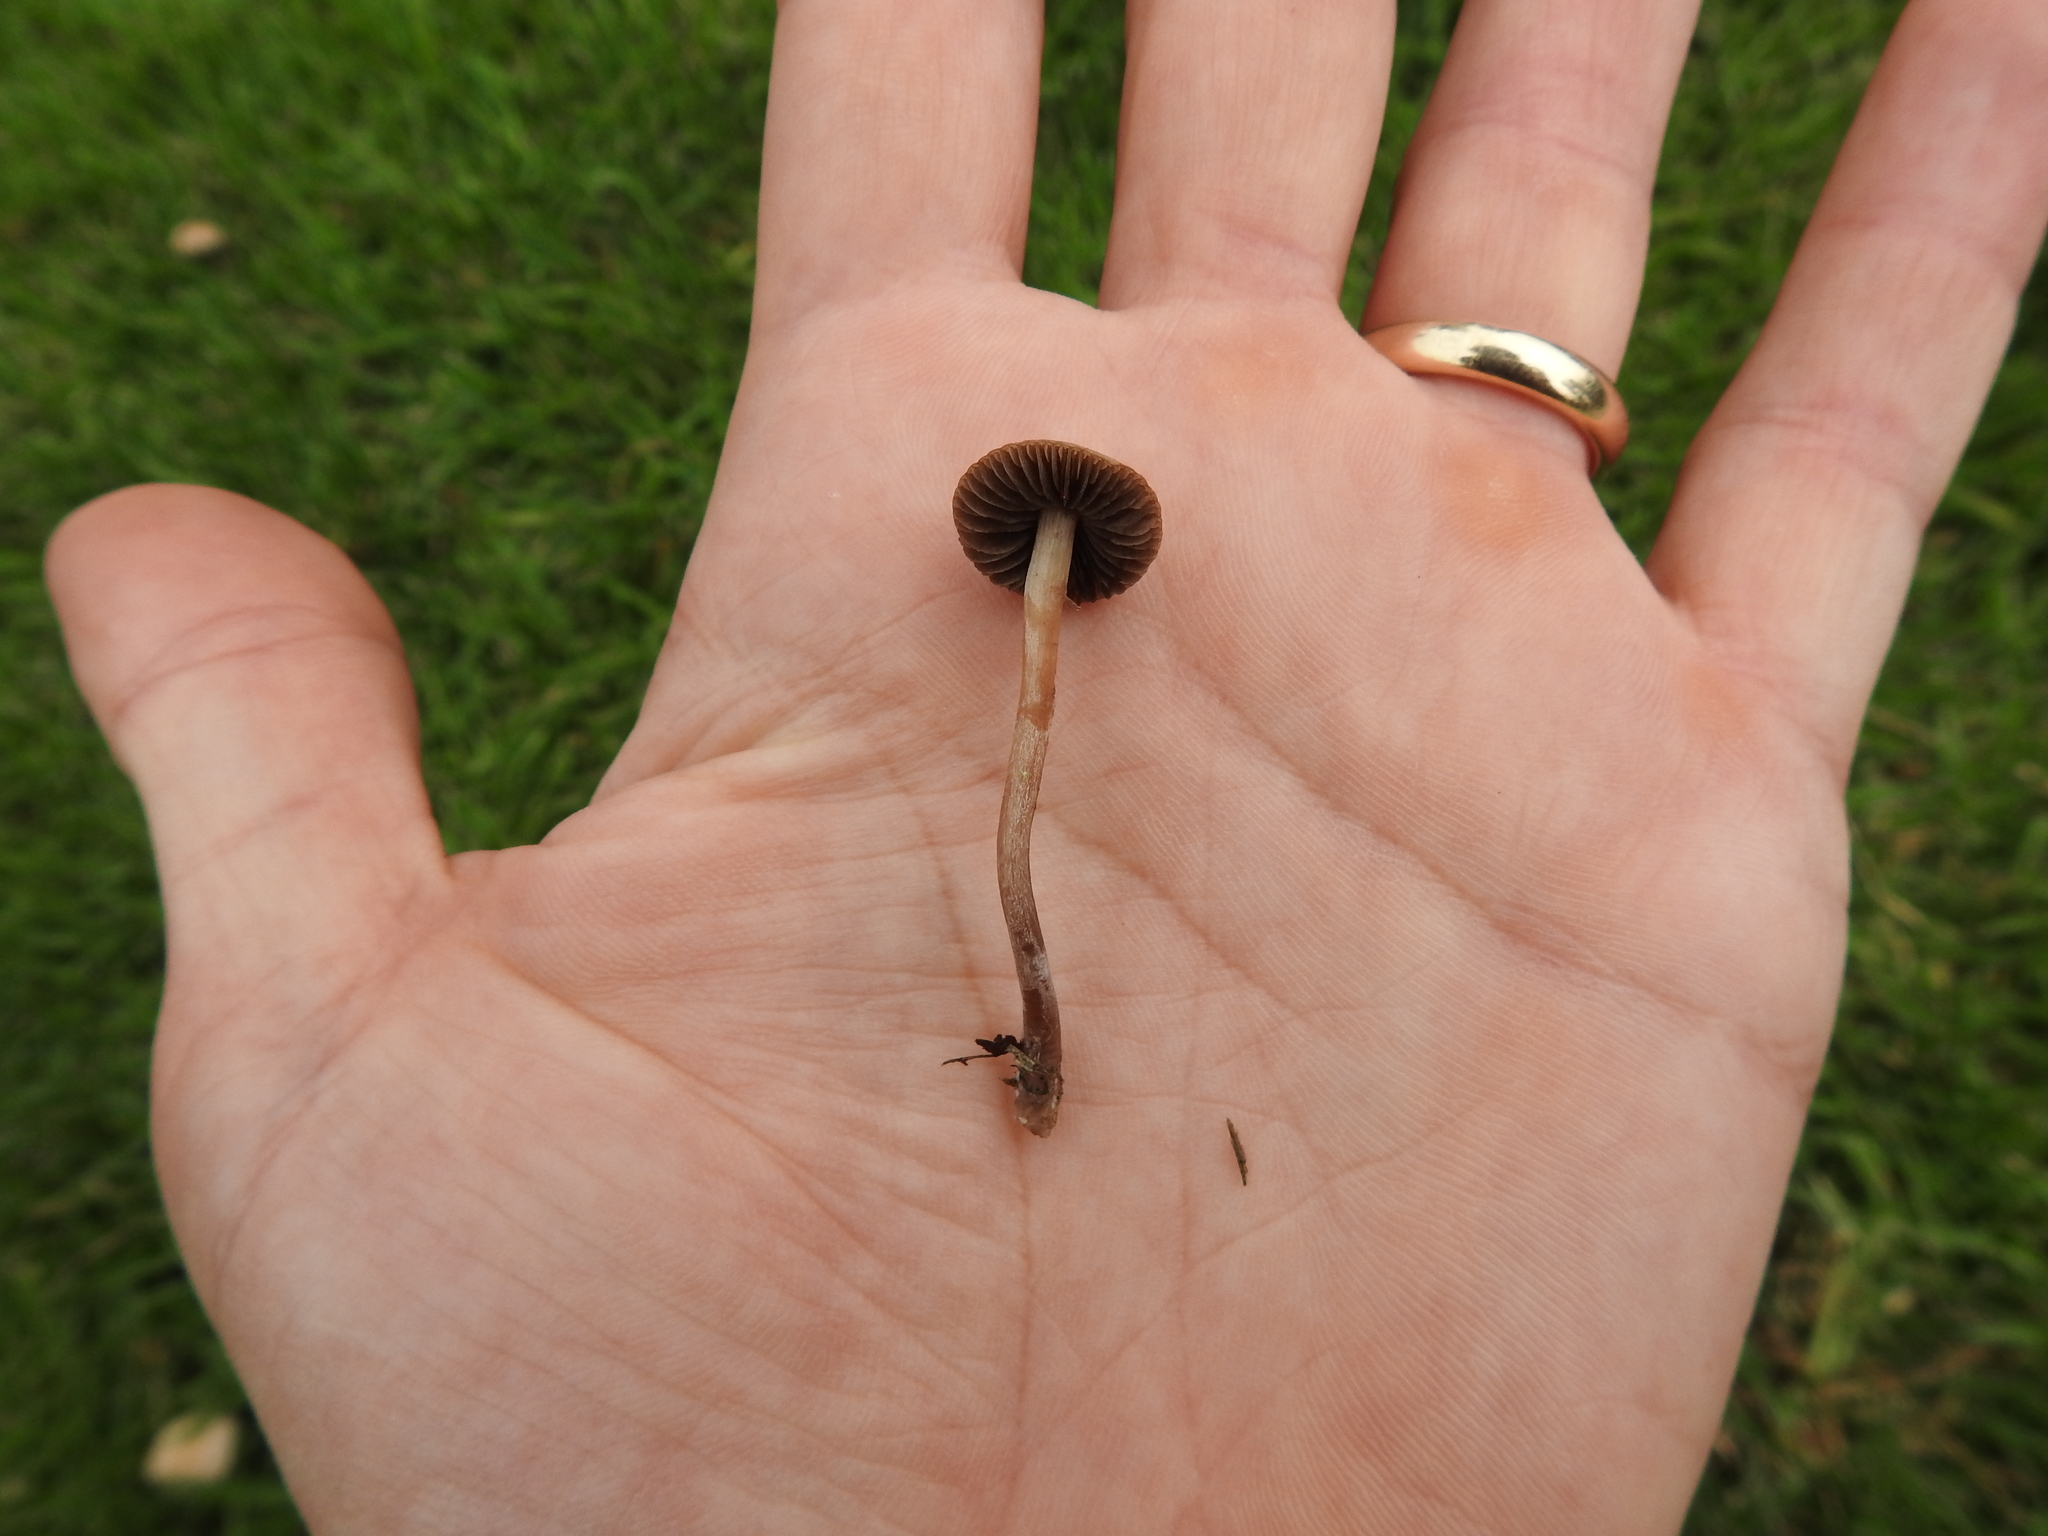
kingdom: Fungi
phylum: Basidiomycota
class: Agaricomycetes
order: Agaricales
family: Bolbitiaceae
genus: Panaeolina
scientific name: Panaeolina foenisecii
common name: Brown hay cap
